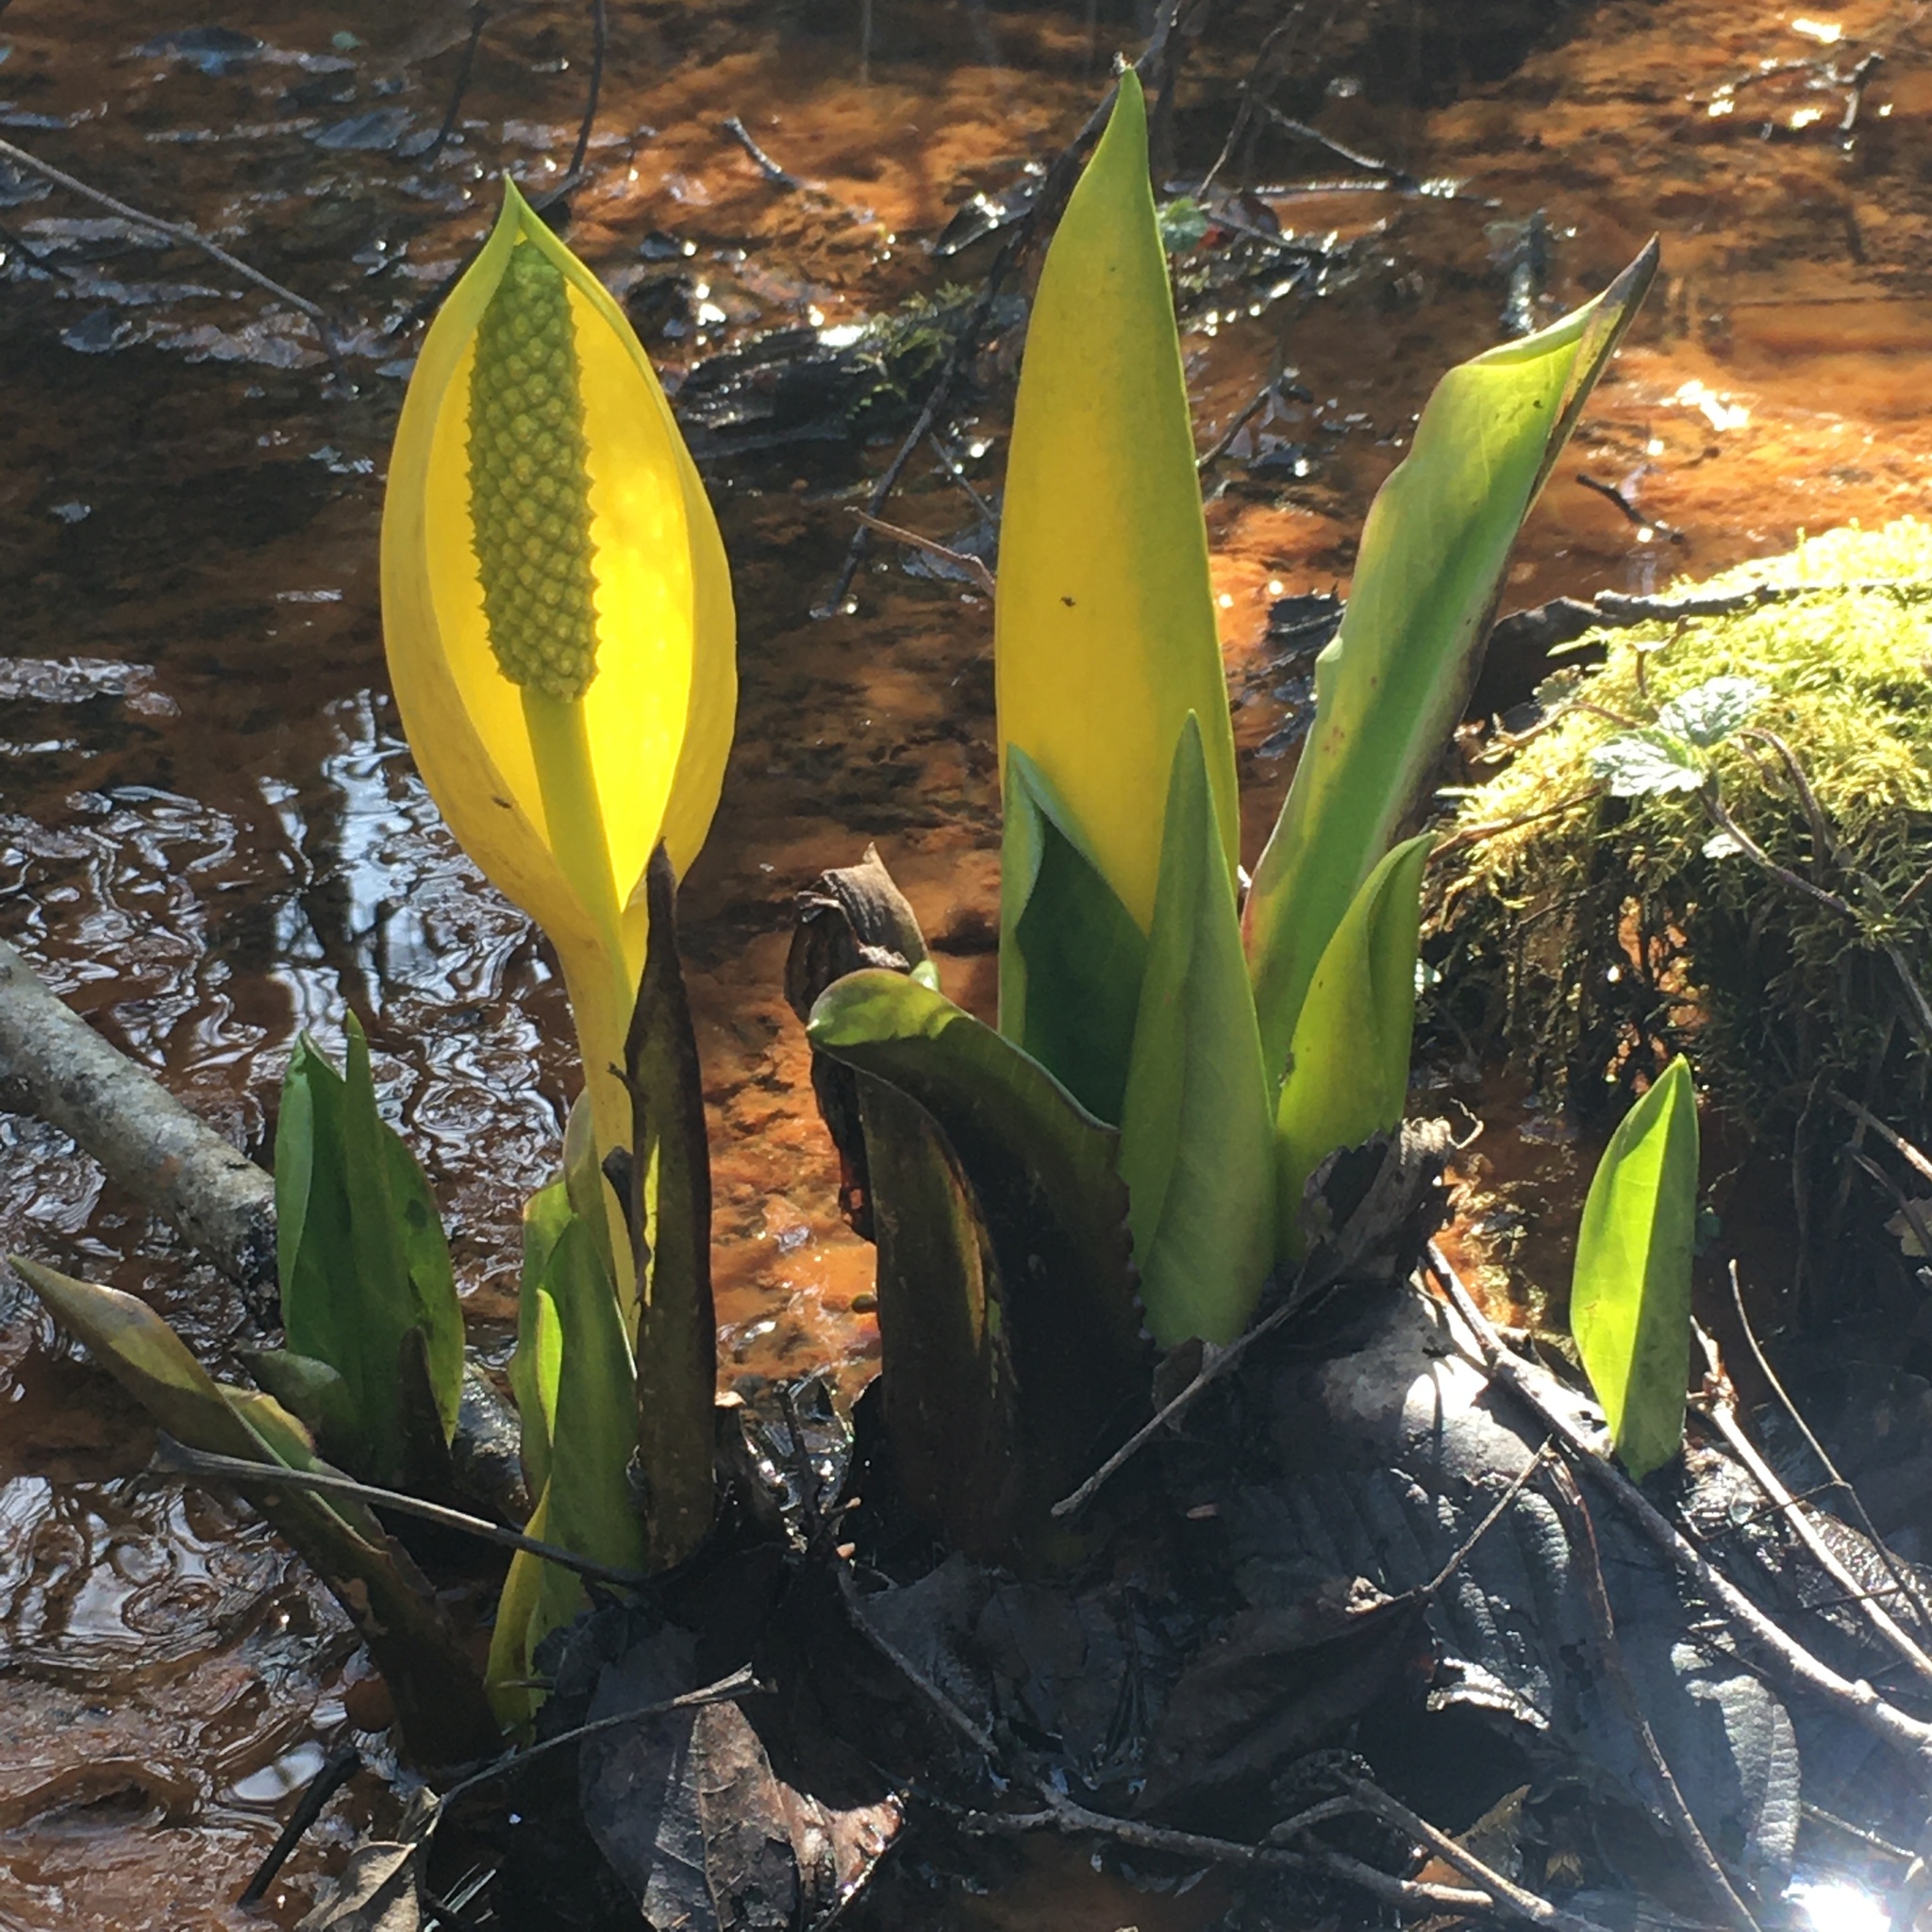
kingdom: Plantae
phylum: Tracheophyta
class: Liliopsida
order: Alismatales
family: Araceae
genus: Lysichiton
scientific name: Lysichiton americanus
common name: American skunk cabbage
